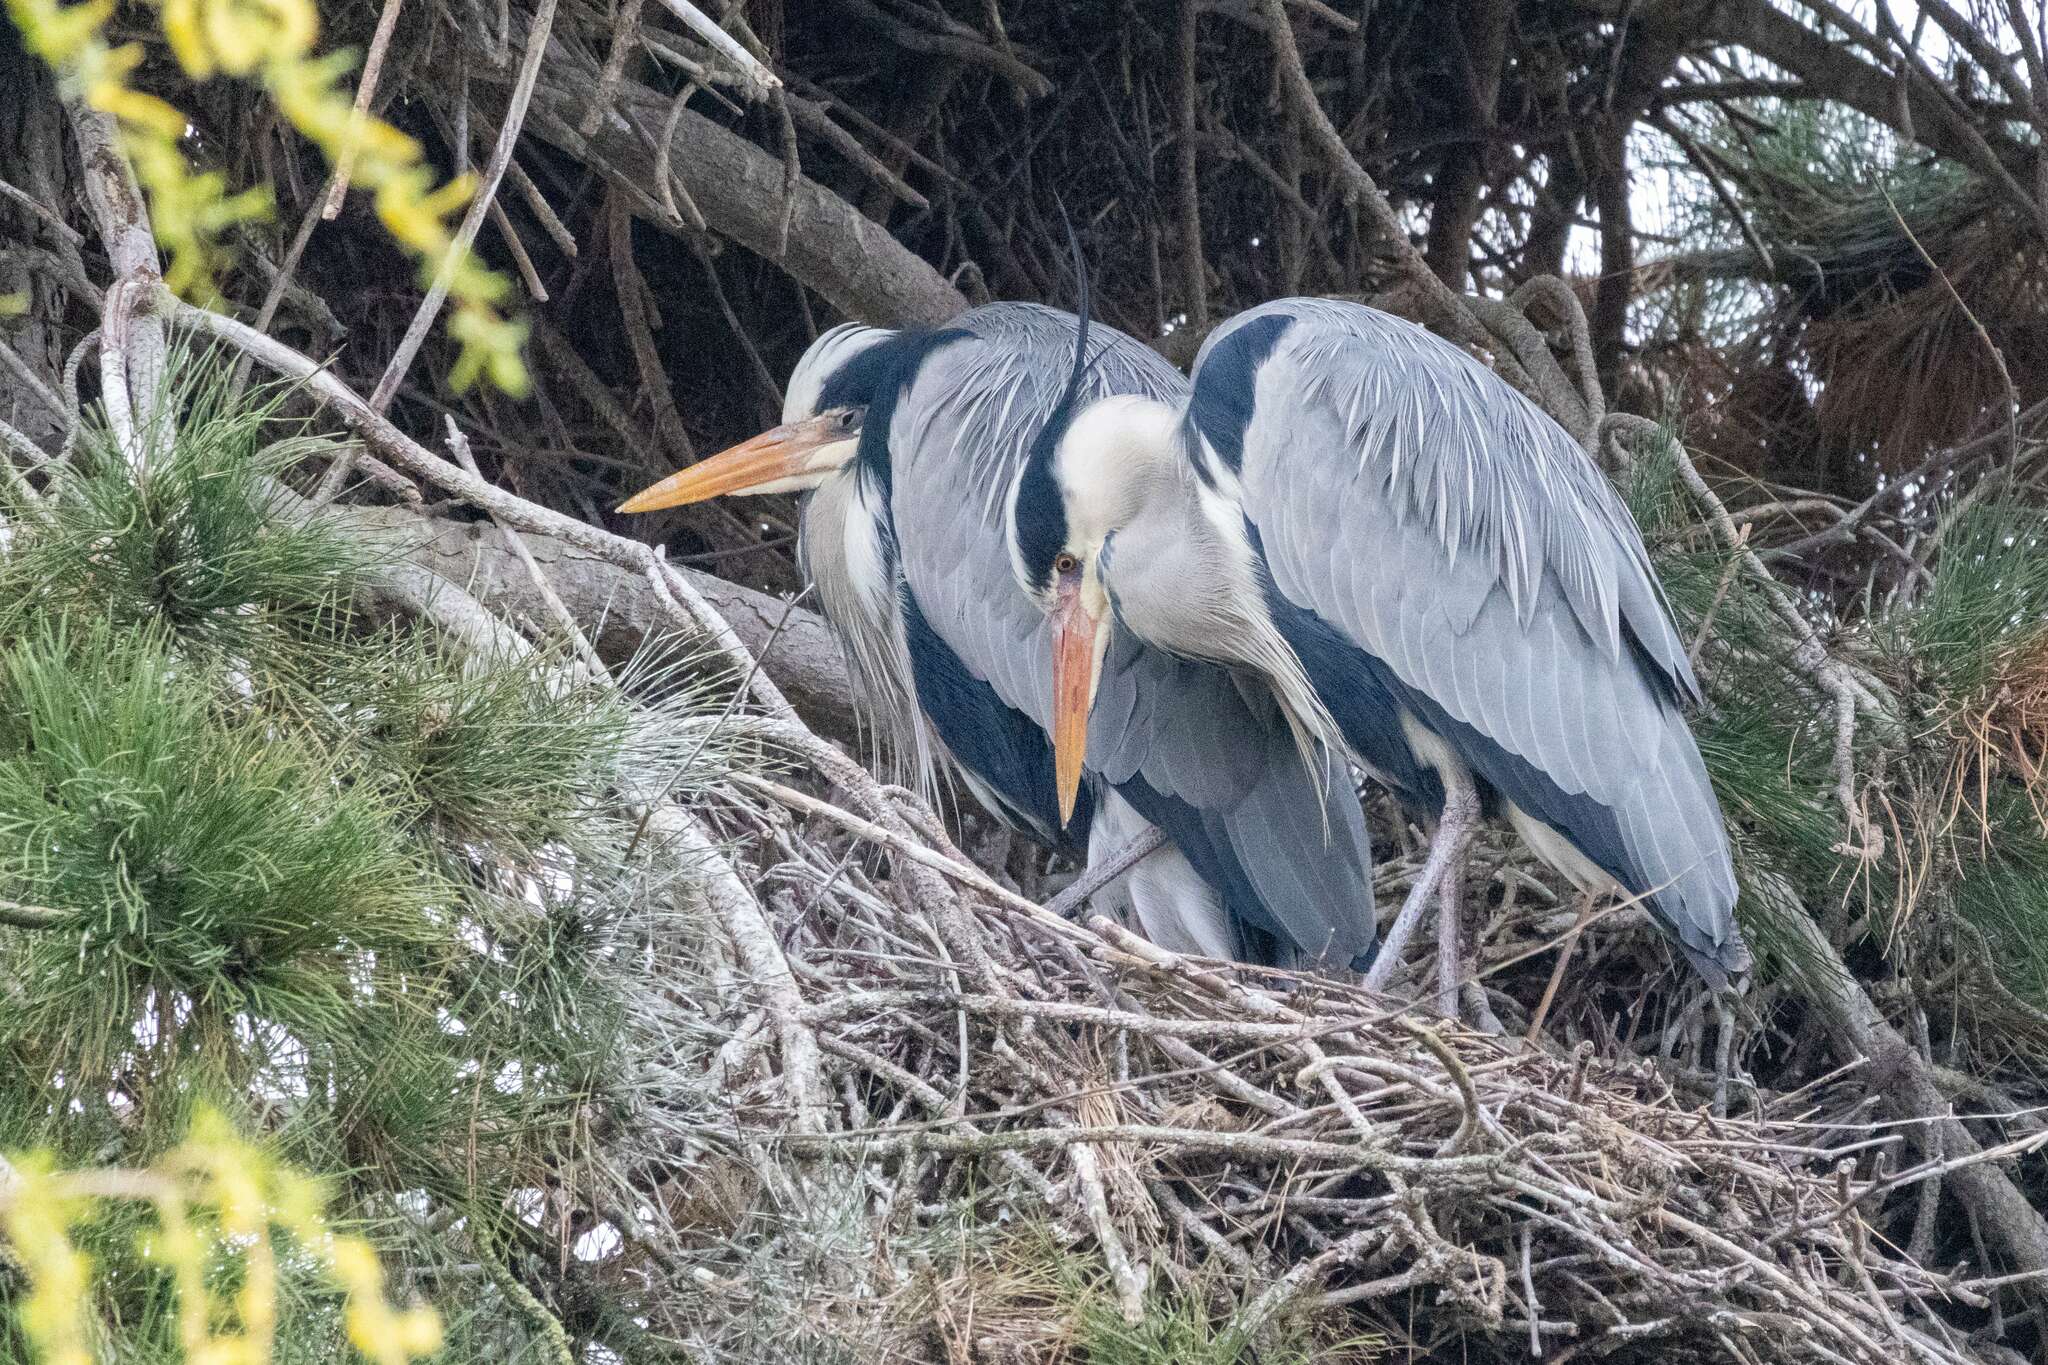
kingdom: Animalia
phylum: Chordata
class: Aves
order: Pelecaniformes
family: Ardeidae
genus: Ardea
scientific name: Ardea cinerea
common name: Grey heron
